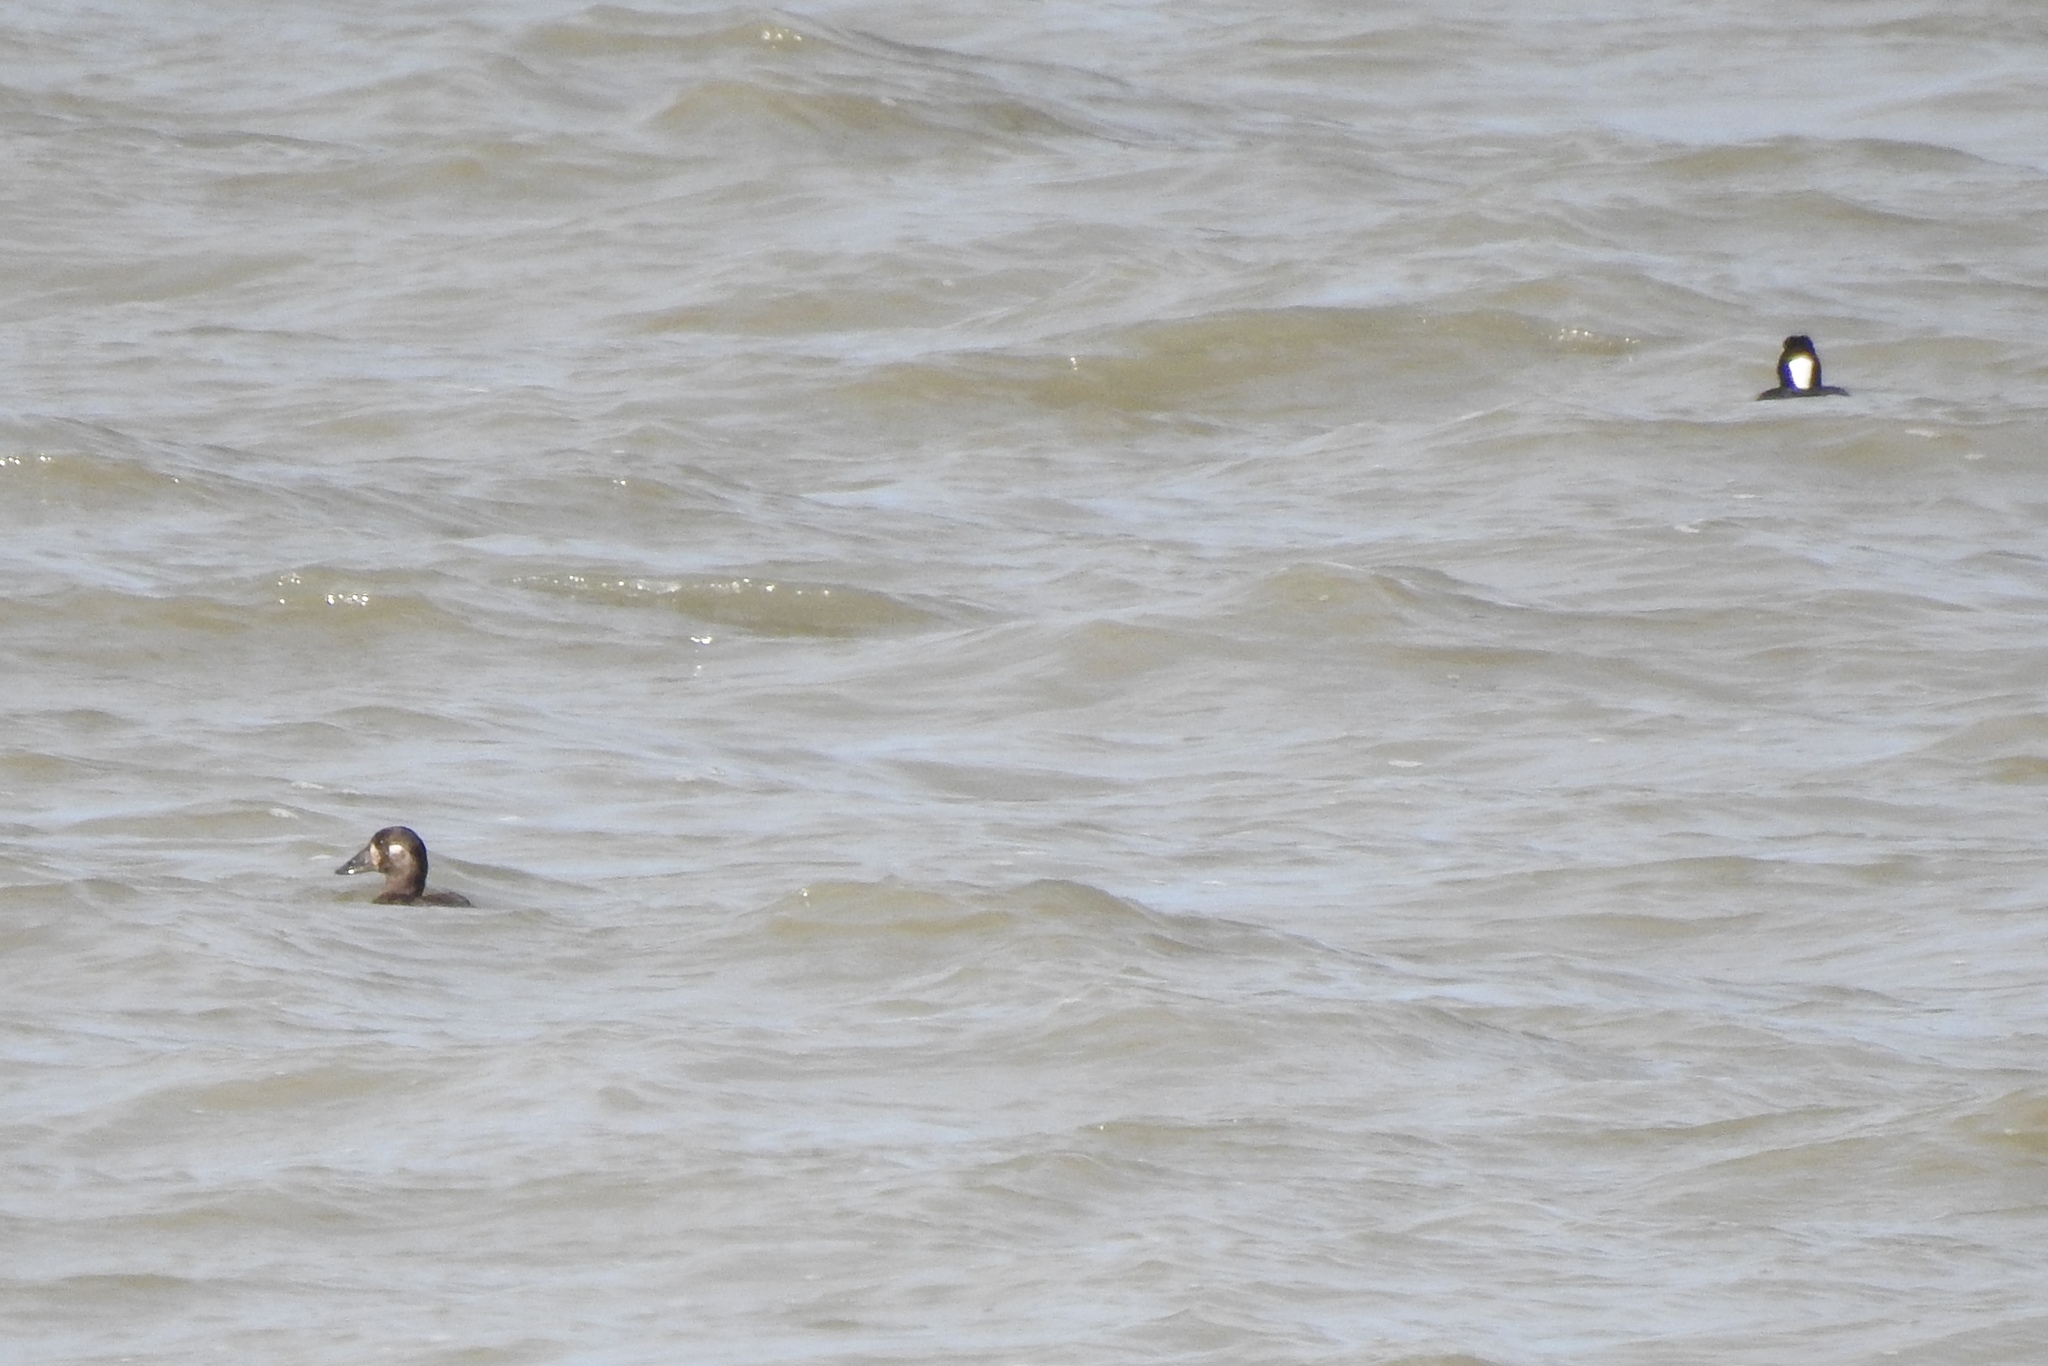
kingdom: Animalia
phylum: Chordata
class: Aves
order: Anseriformes
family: Anatidae
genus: Melanitta
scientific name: Melanitta perspicillata
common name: Surf scoter
